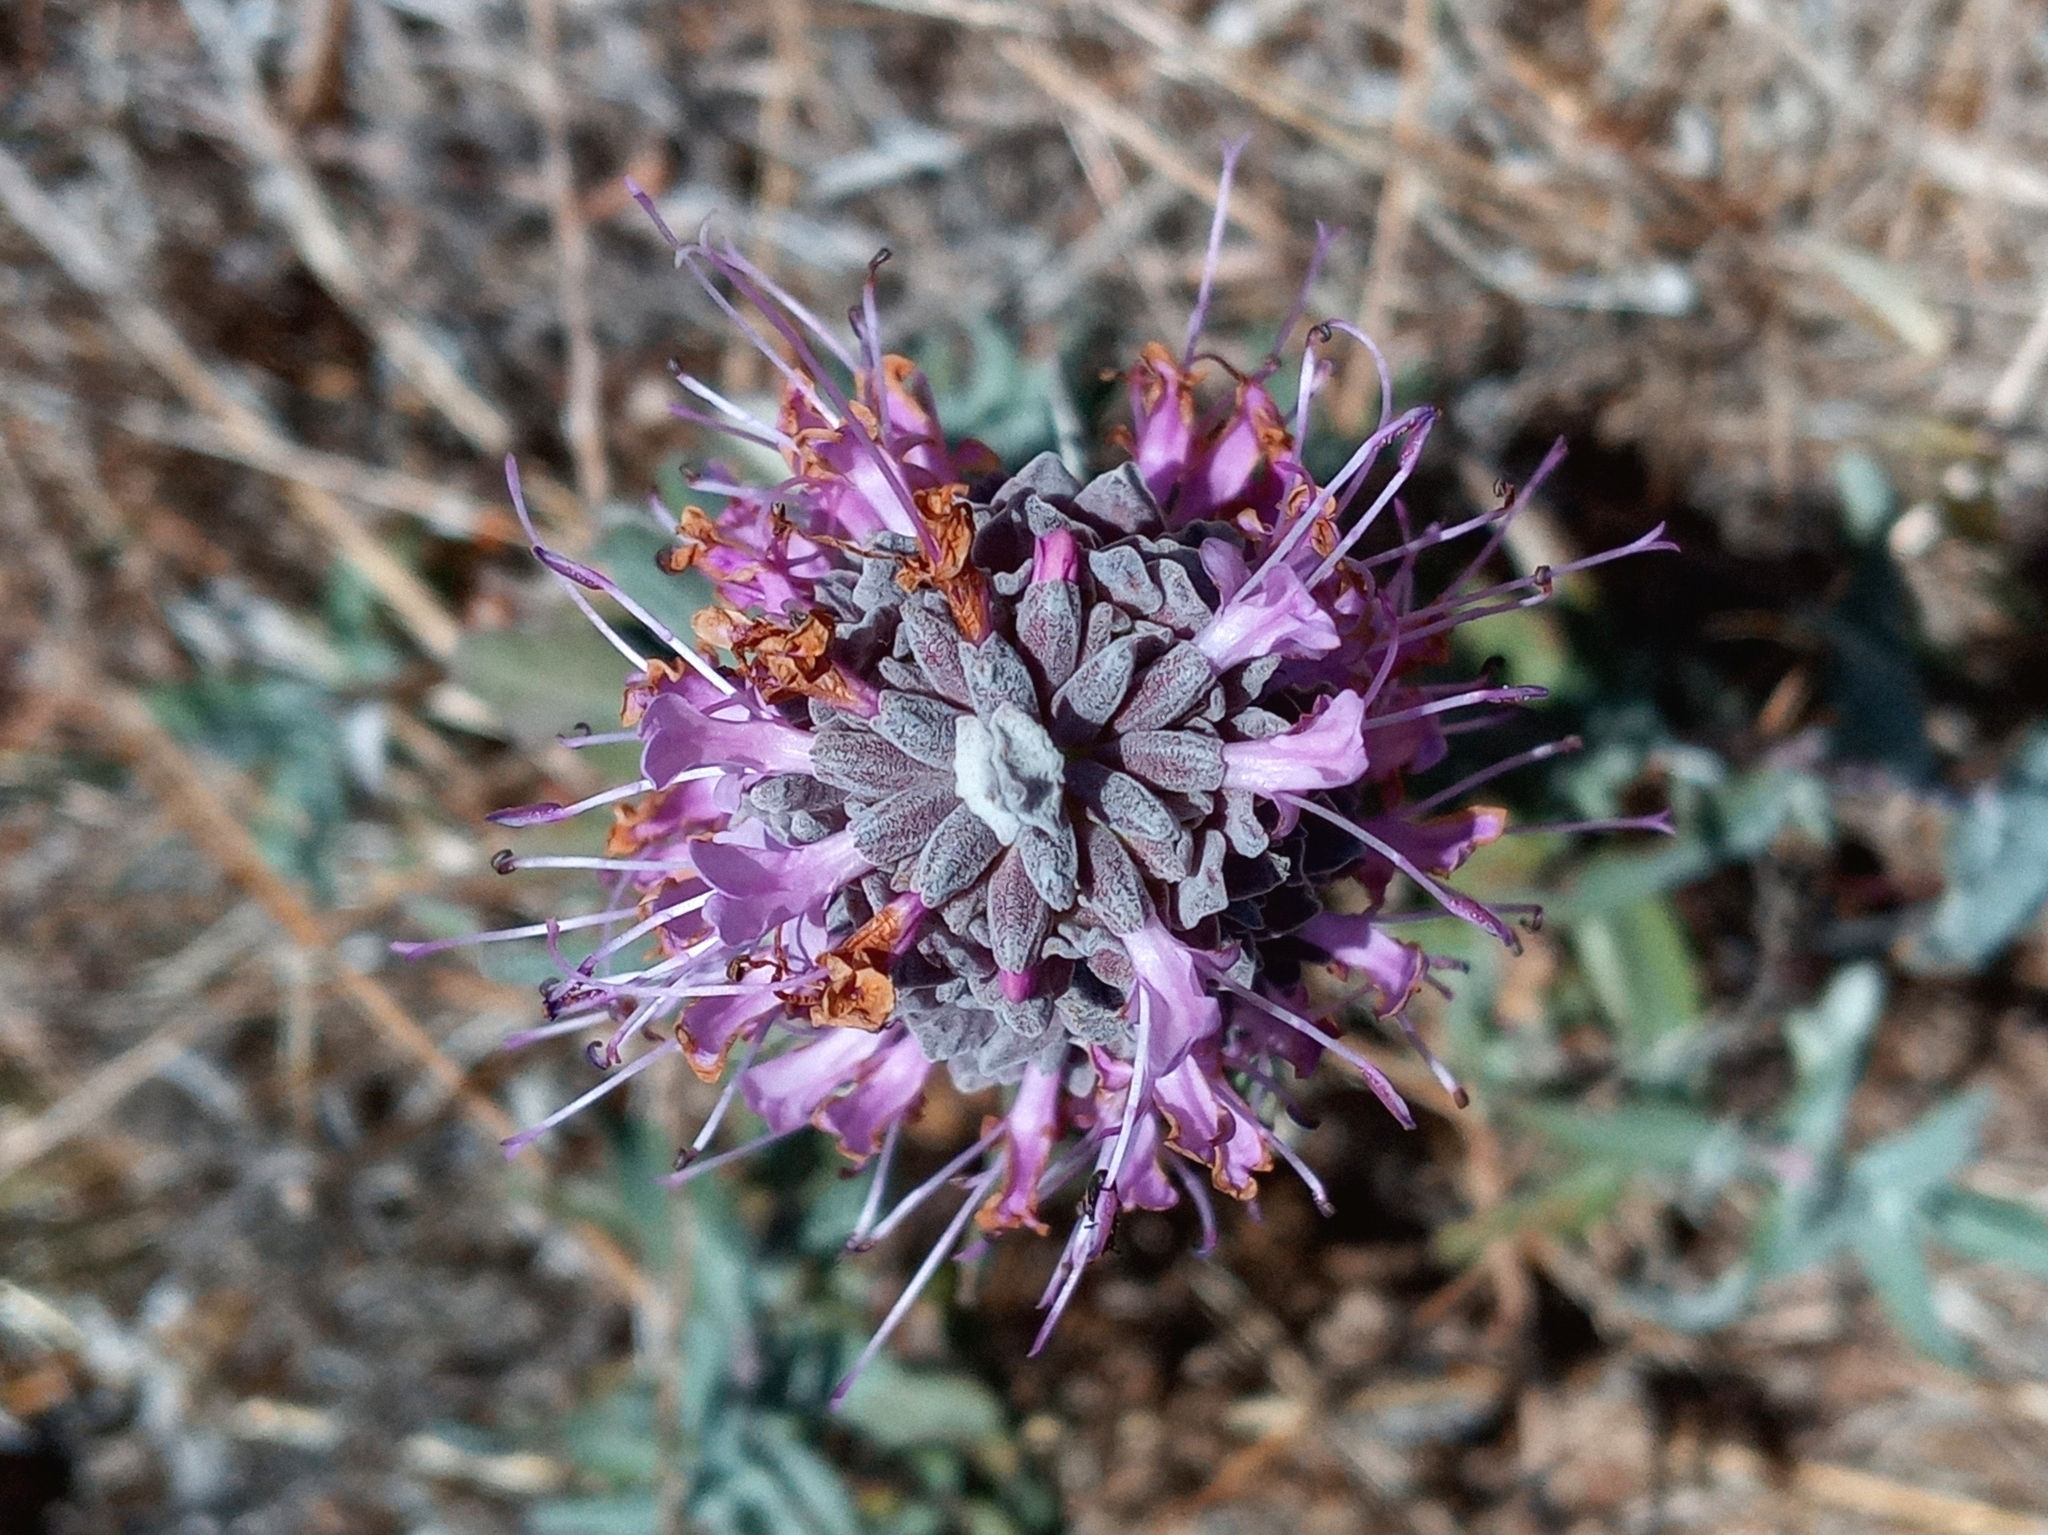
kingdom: Plantae
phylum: Tracheophyta
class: Magnoliopsida
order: Lamiales
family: Lamiaceae
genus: Salvia
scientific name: Salvia leucophylla
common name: Purple sage
